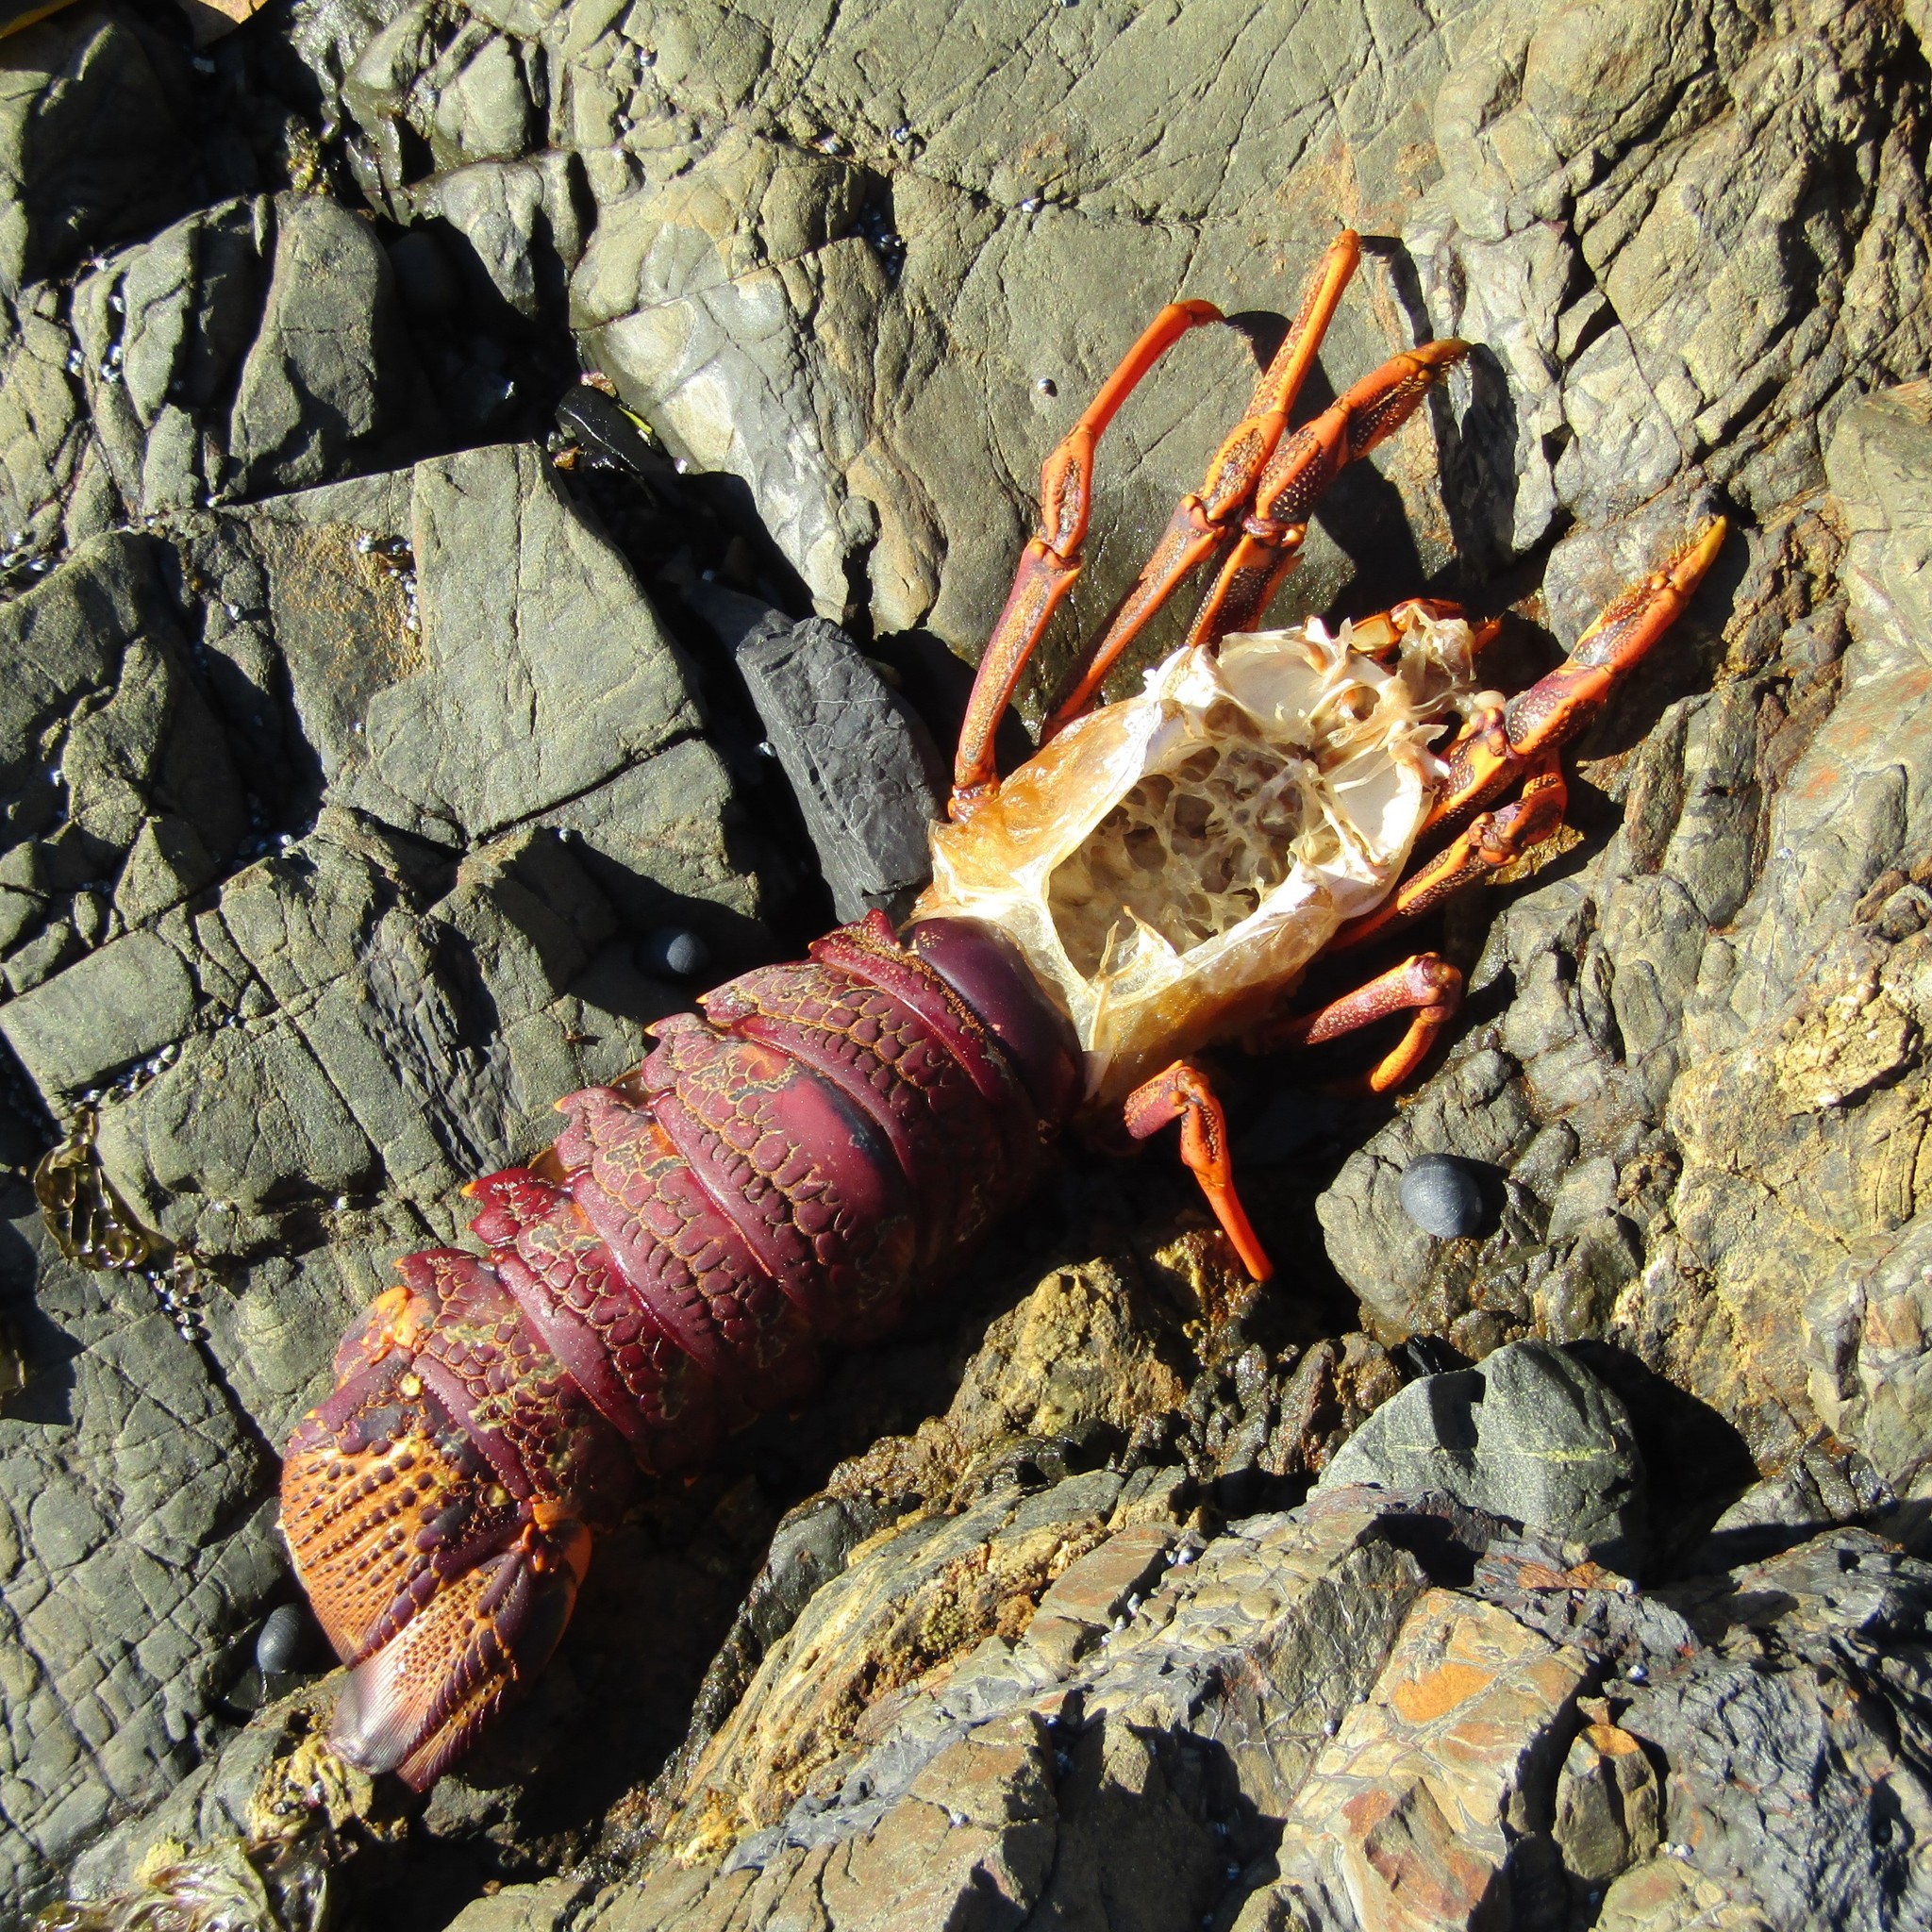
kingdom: Animalia
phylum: Arthropoda
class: Malacostraca
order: Decapoda
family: Palinuridae
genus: Jasus
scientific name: Jasus edwardsii
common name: Red rock lobster
